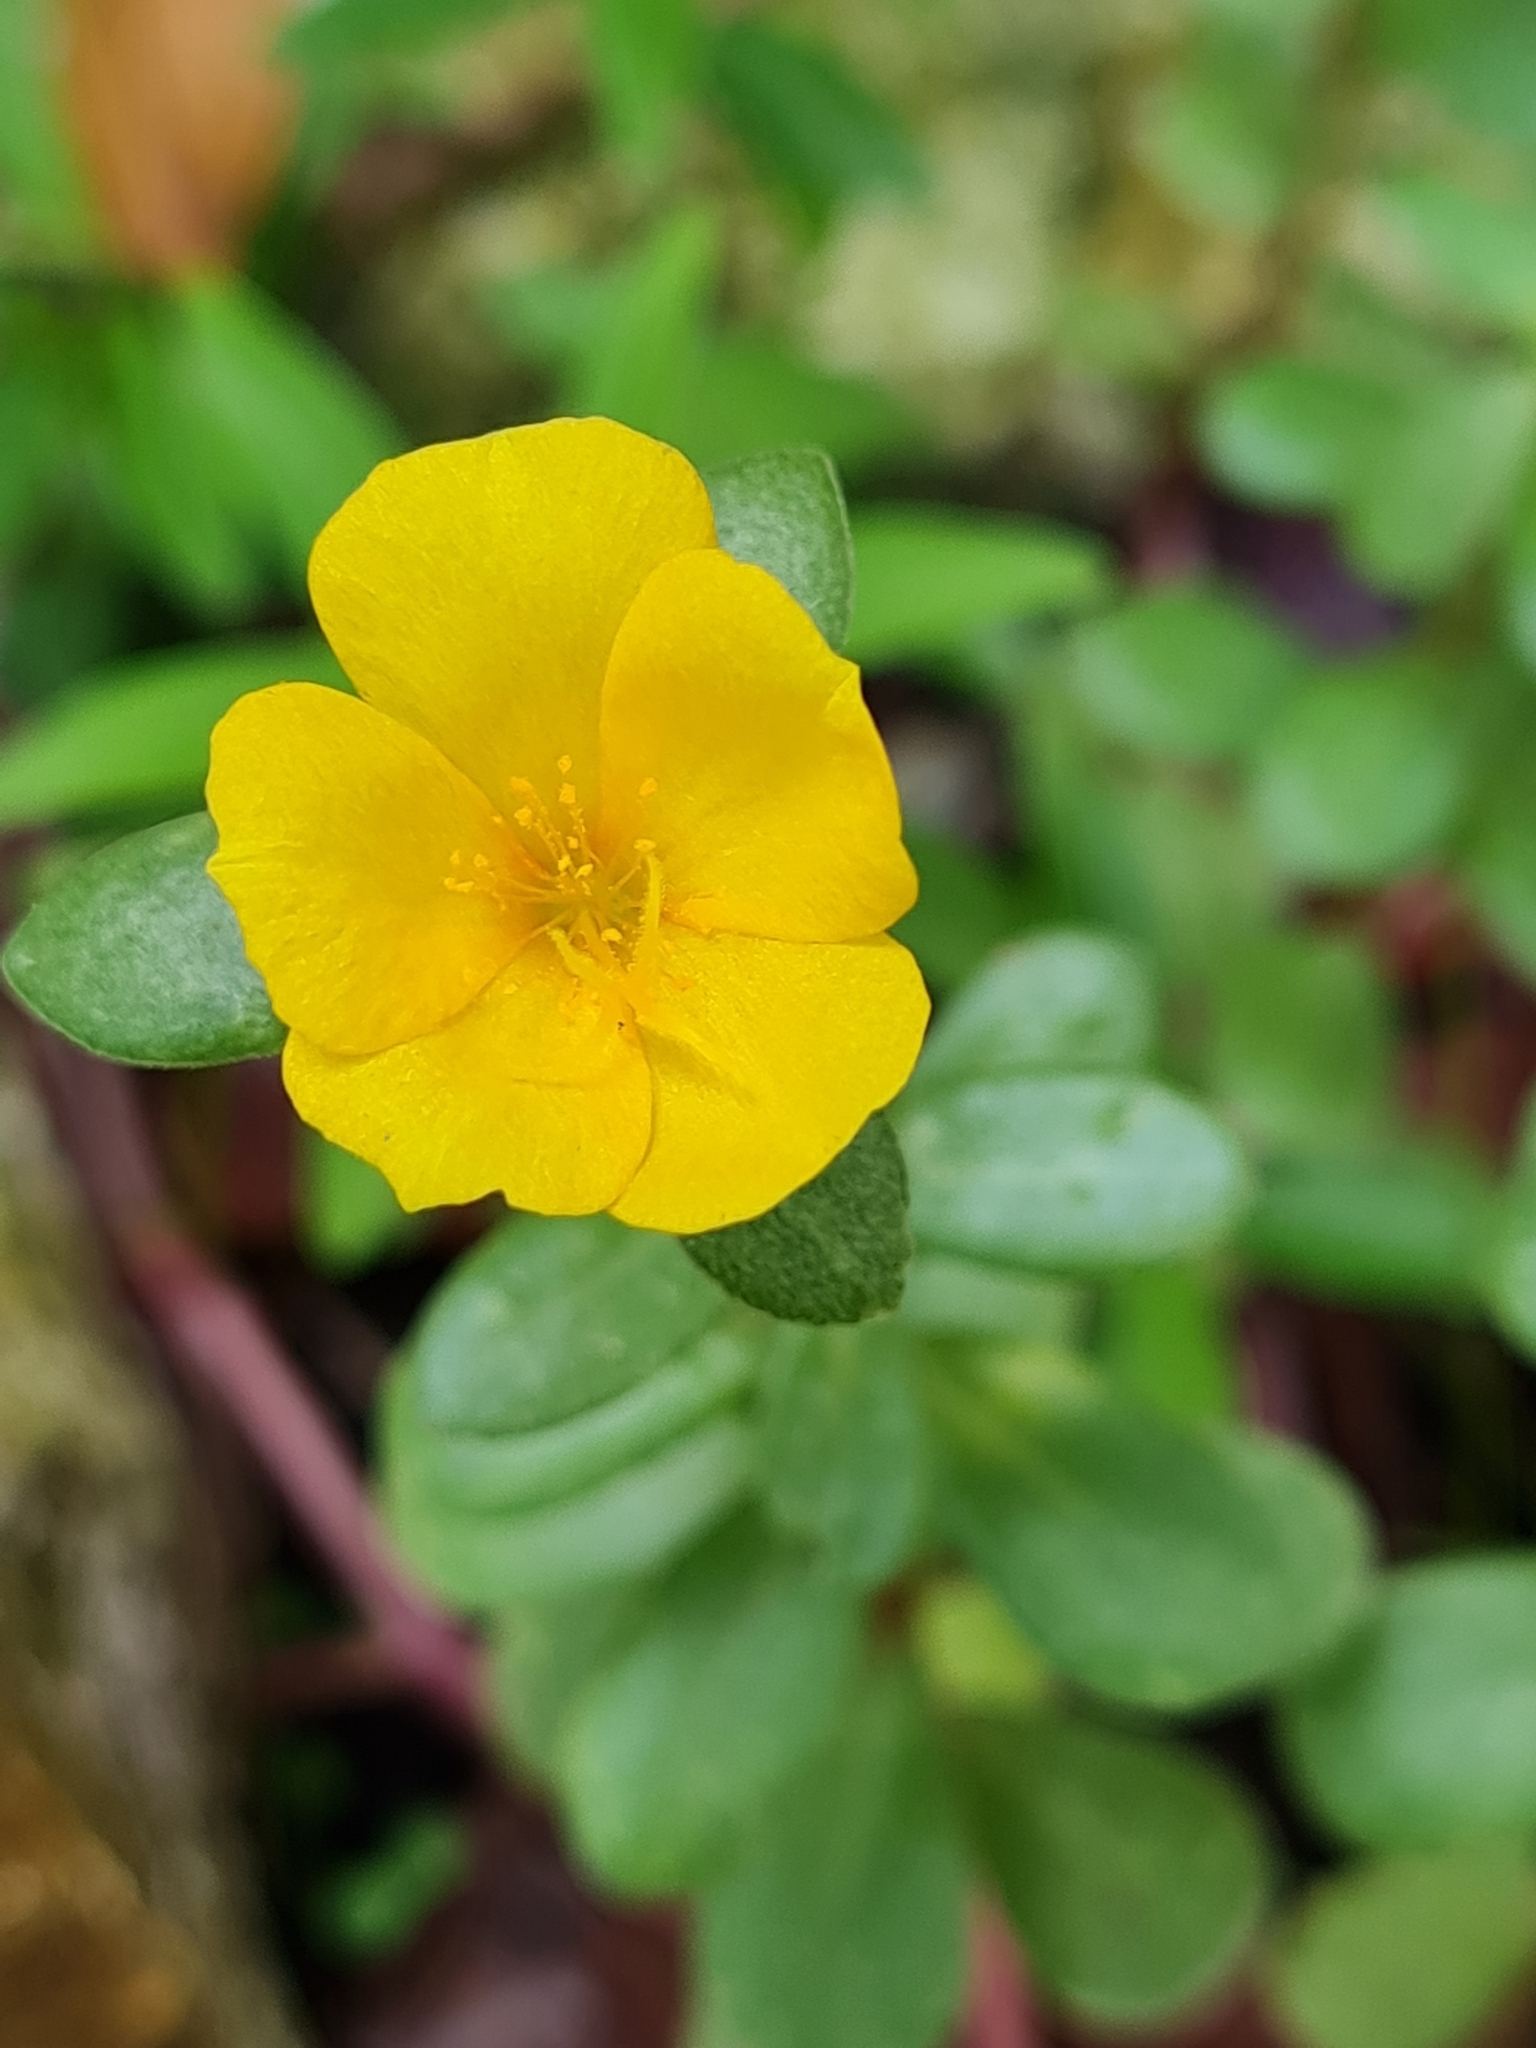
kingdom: Plantae
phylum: Tracheophyta
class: Magnoliopsida
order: Caryophyllales
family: Portulacaceae
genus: Portulaca
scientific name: Portulaca umbraticola
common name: Wingpod purslane
